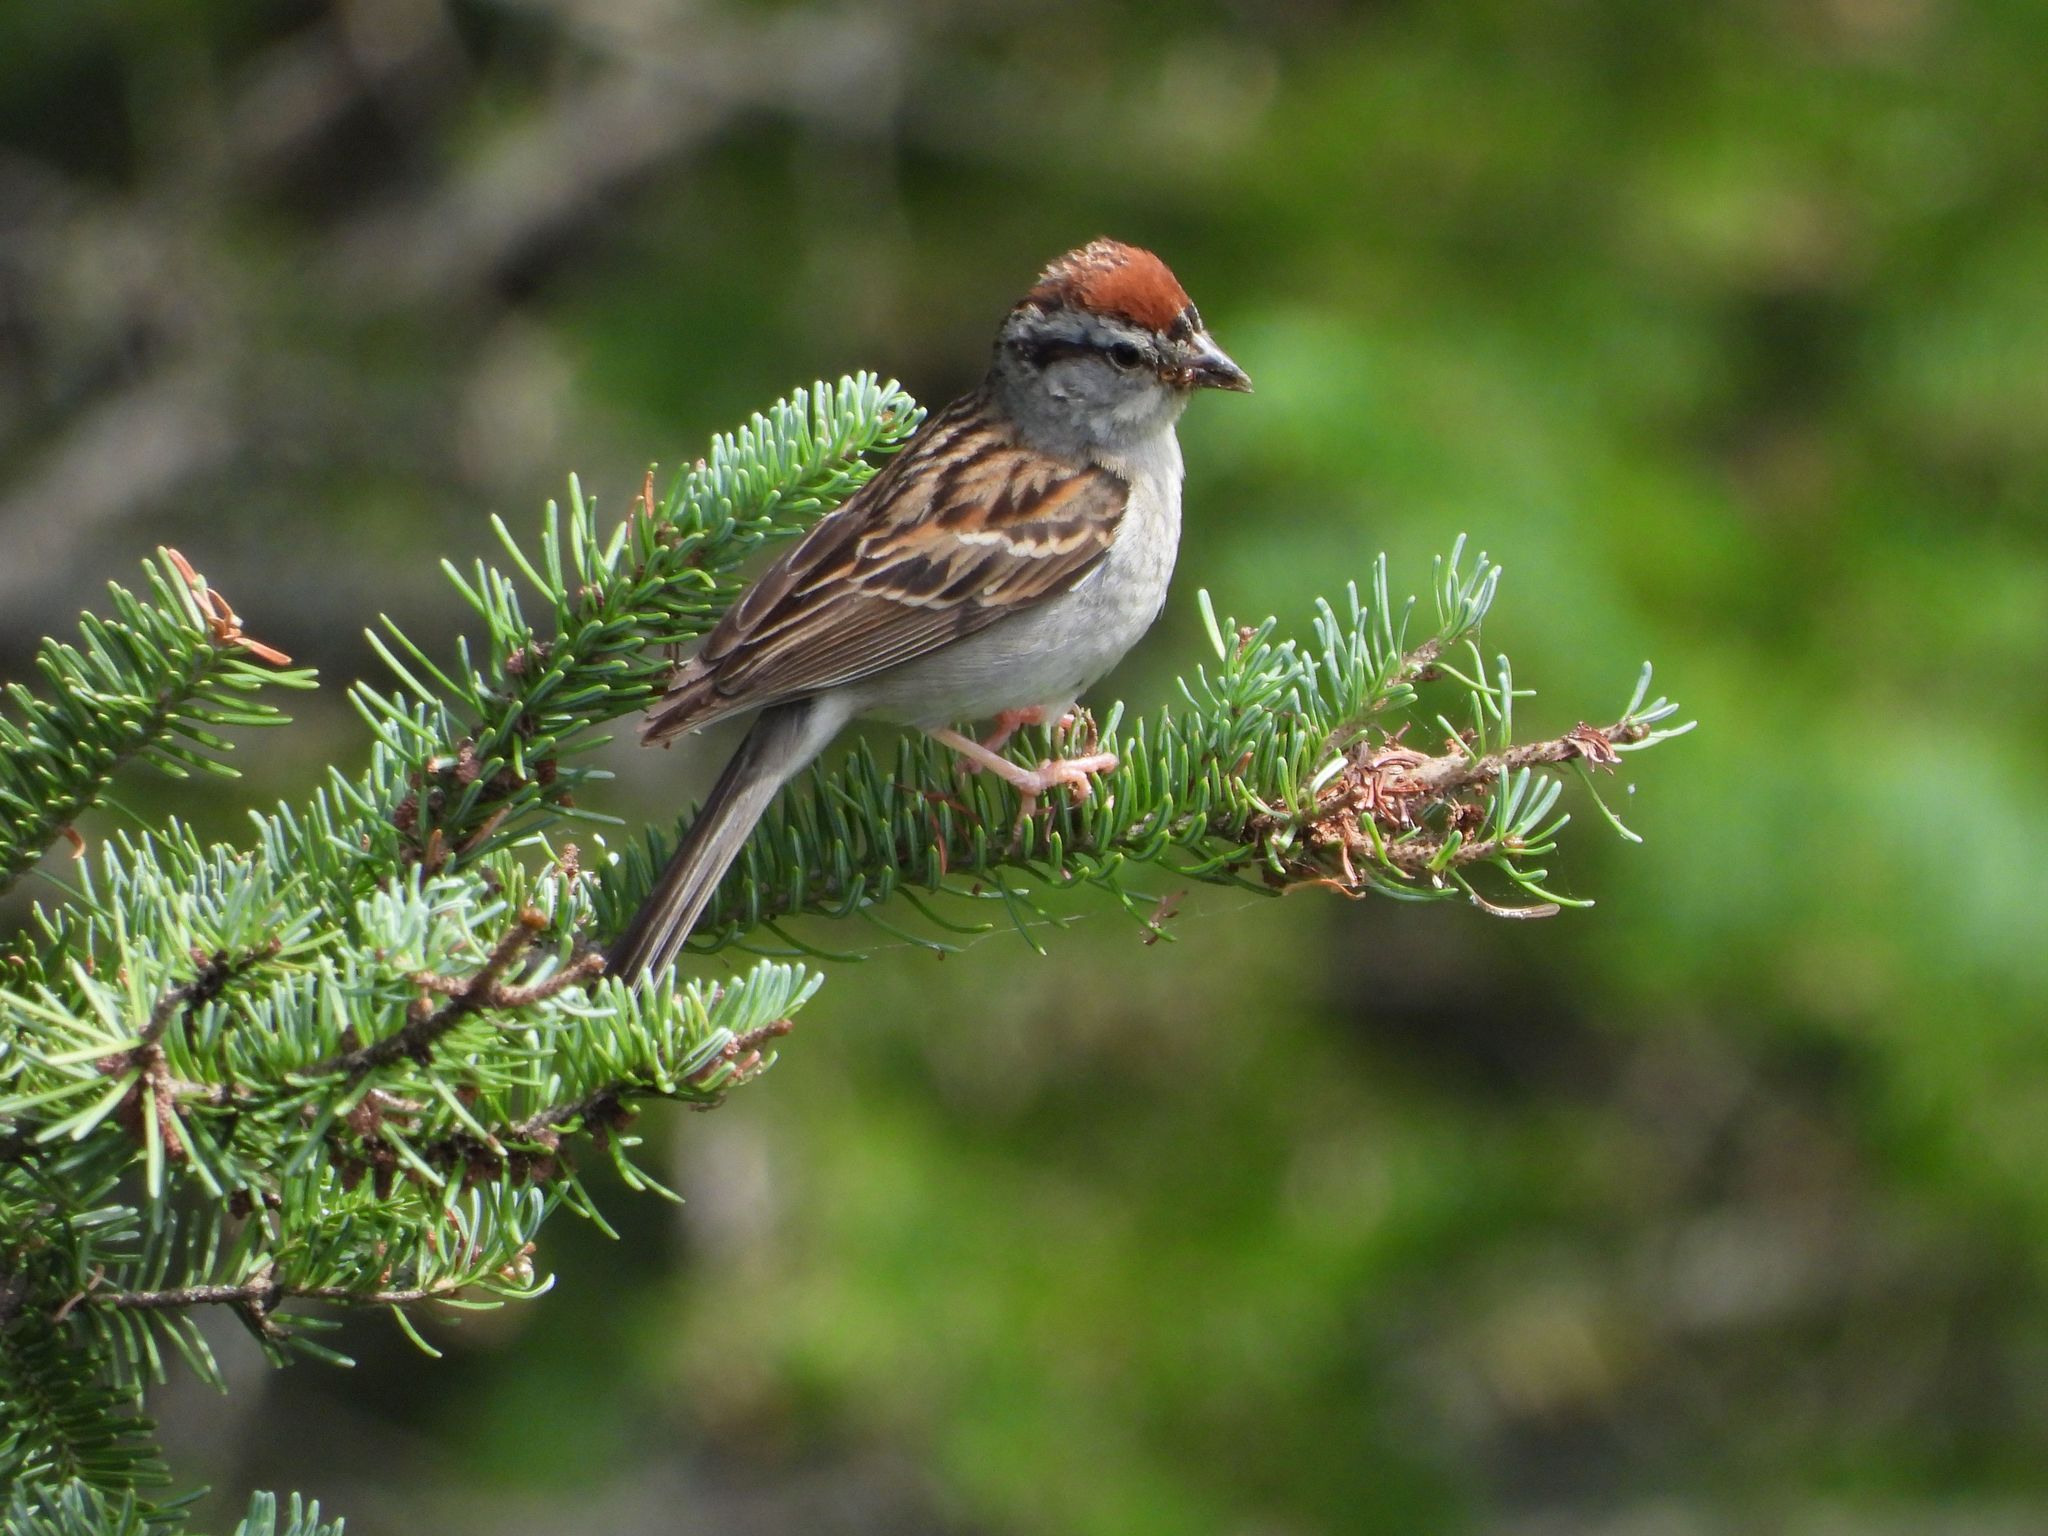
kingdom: Animalia
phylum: Chordata
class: Aves
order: Passeriformes
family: Passerellidae
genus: Spizella
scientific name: Spizella passerina
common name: Chipping sparrow
